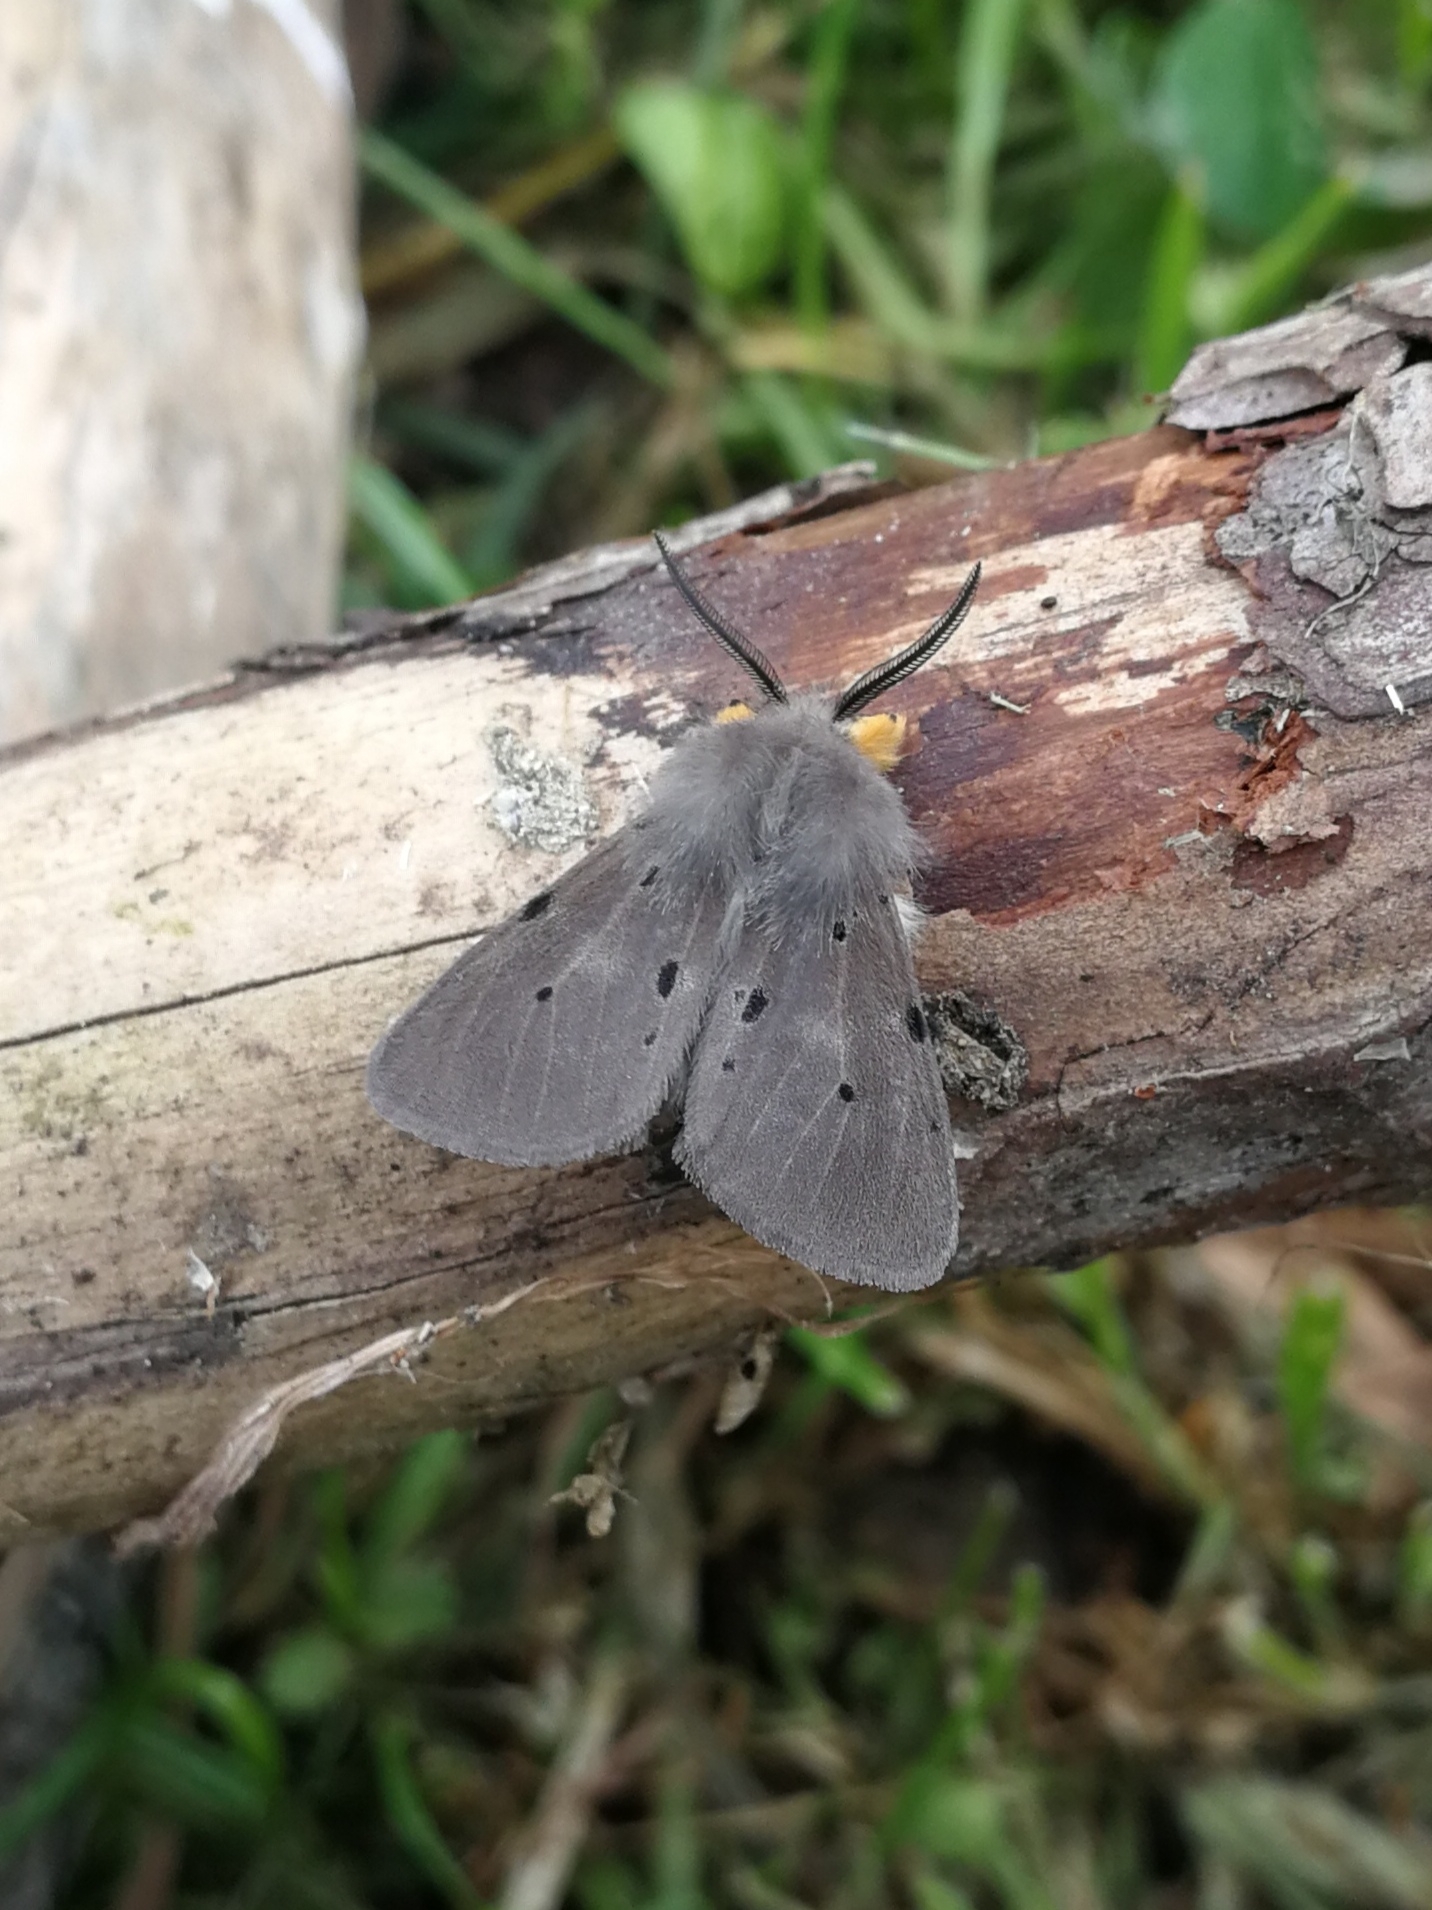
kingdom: Animalia
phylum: Arthropoda
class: Insecta
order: Lepidoptera
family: Erebidae
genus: Diaphora
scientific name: Diaphora mendica
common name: Muslin moth
